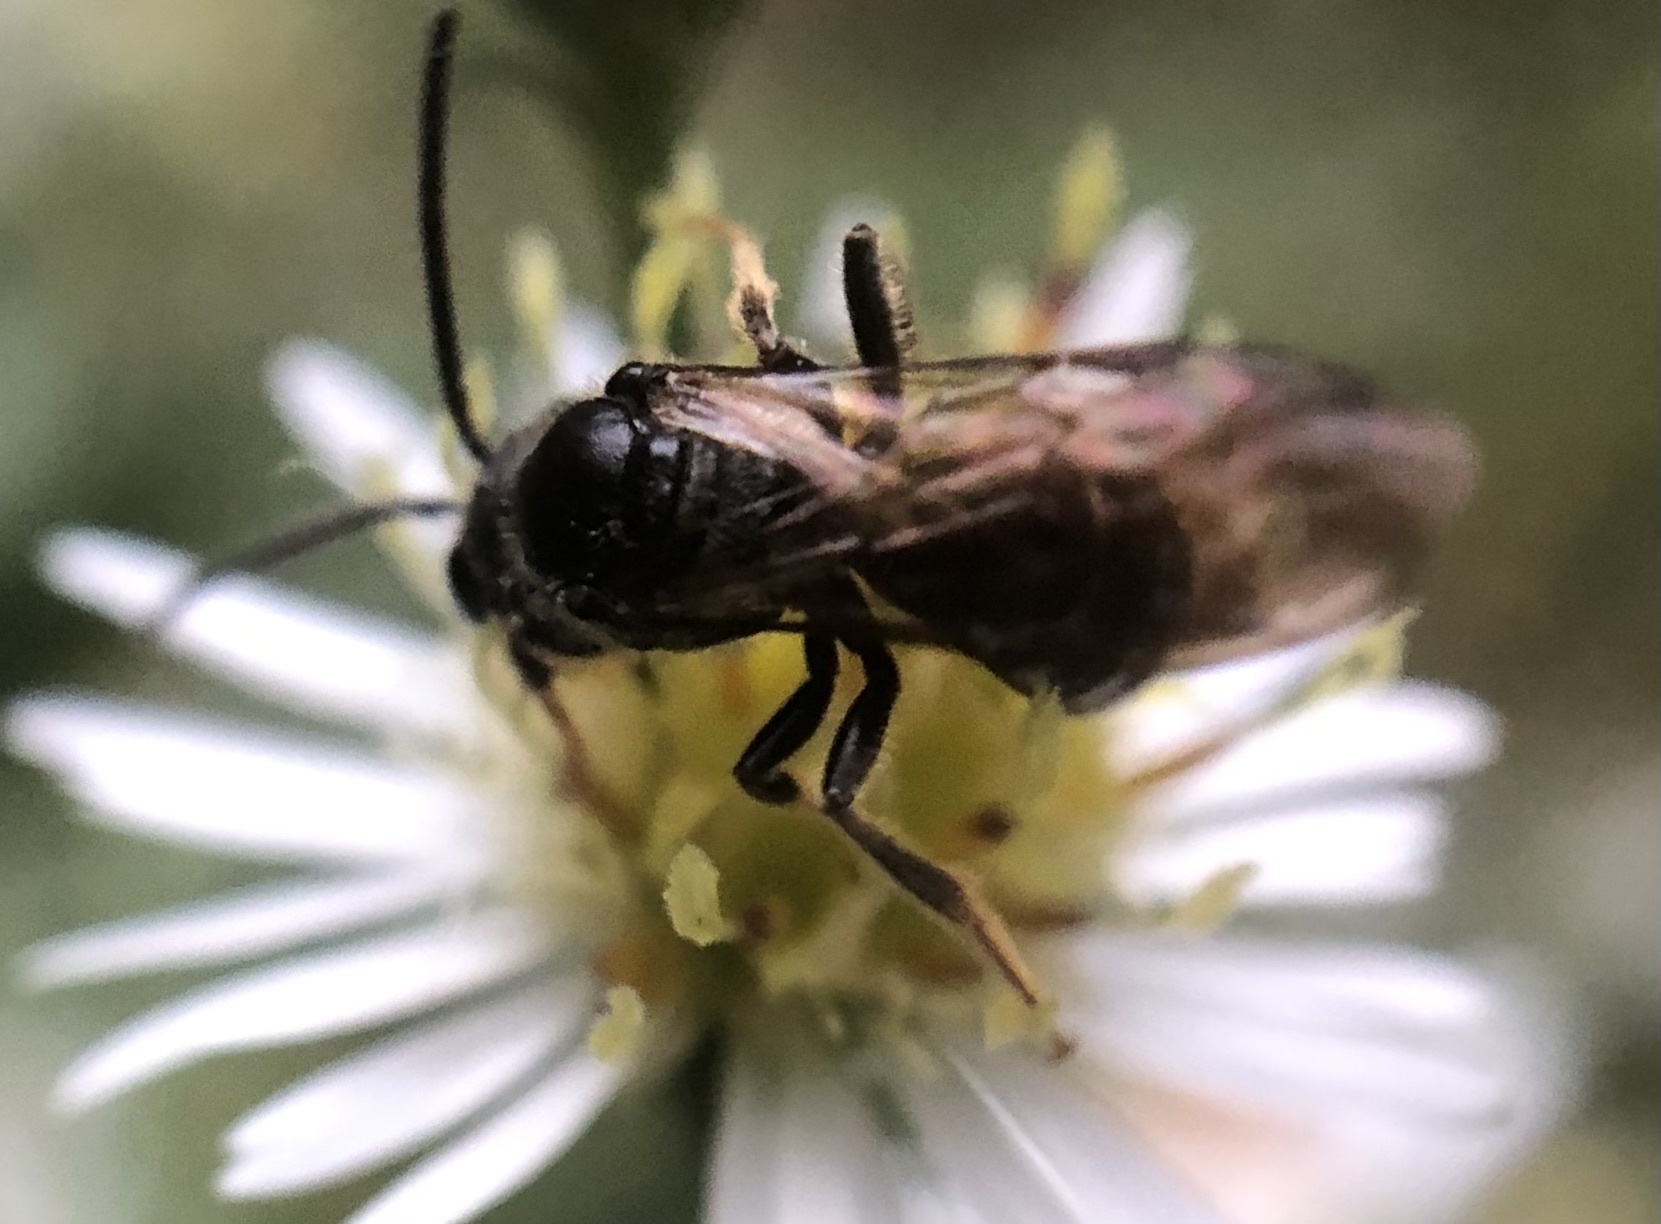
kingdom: Animalia
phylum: Arthropoda
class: Insecta
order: Hymenoptera
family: Halictidae
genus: Lasioglossum
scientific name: Lasioglossum fuscipenne
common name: Brown-winged sweat bee
